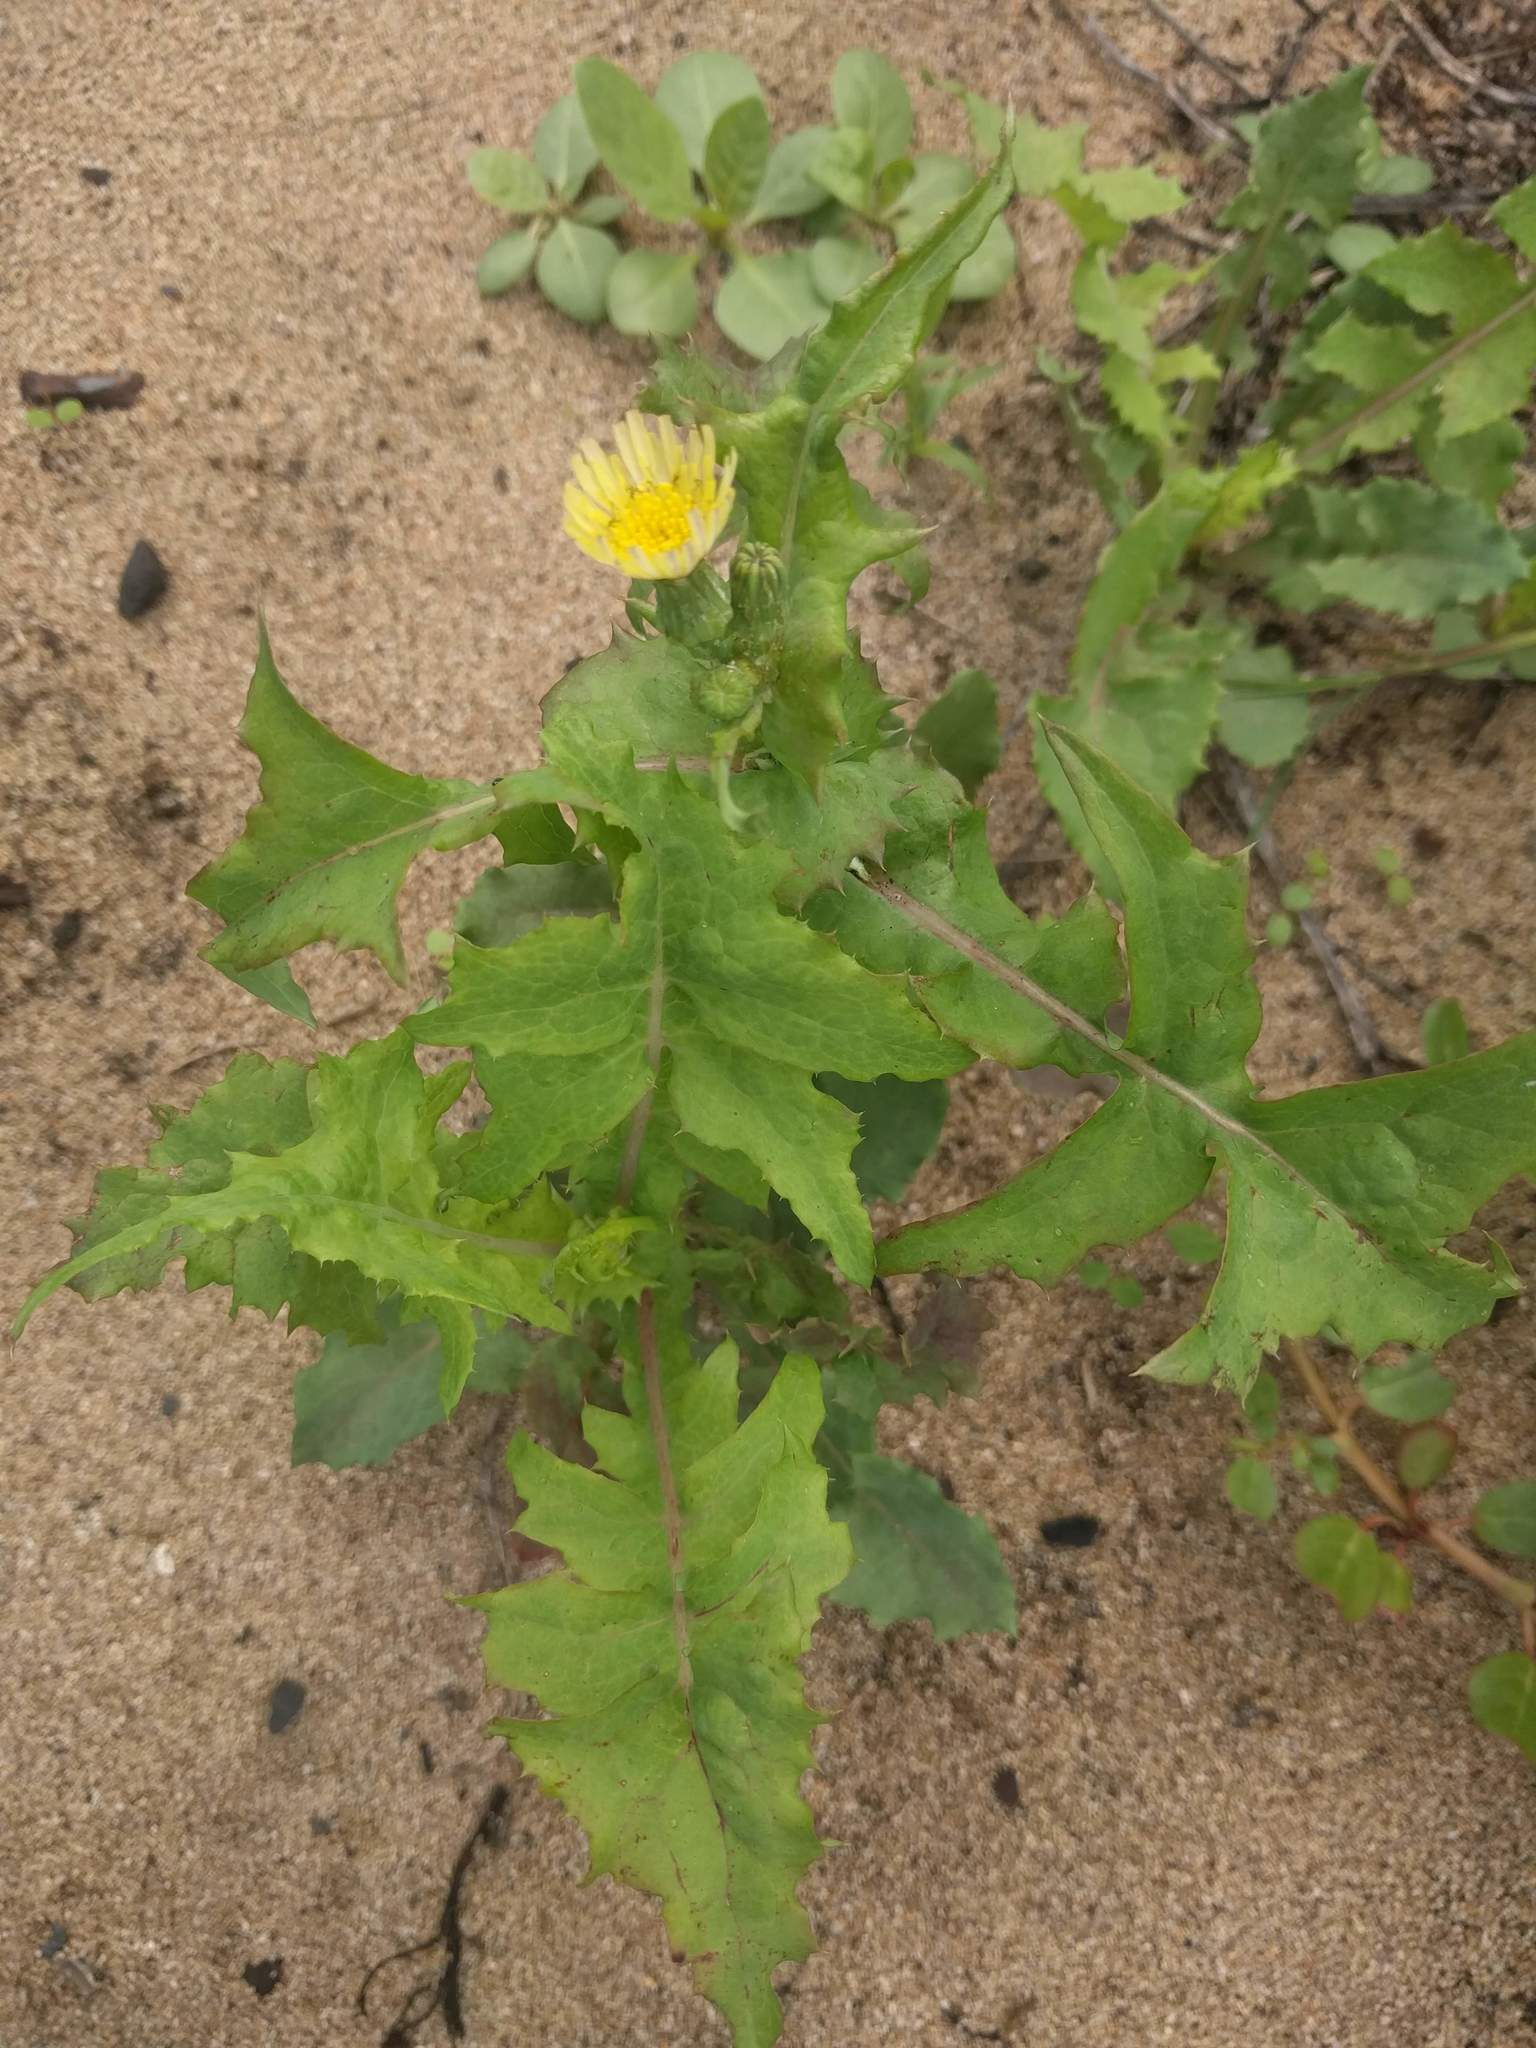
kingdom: Plantae
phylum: Tracheophyta
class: Magnoliopsida
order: Asterales
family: Asteraceae
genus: Sonchus
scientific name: Sonchus oleraceus
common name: Common sowthistle
